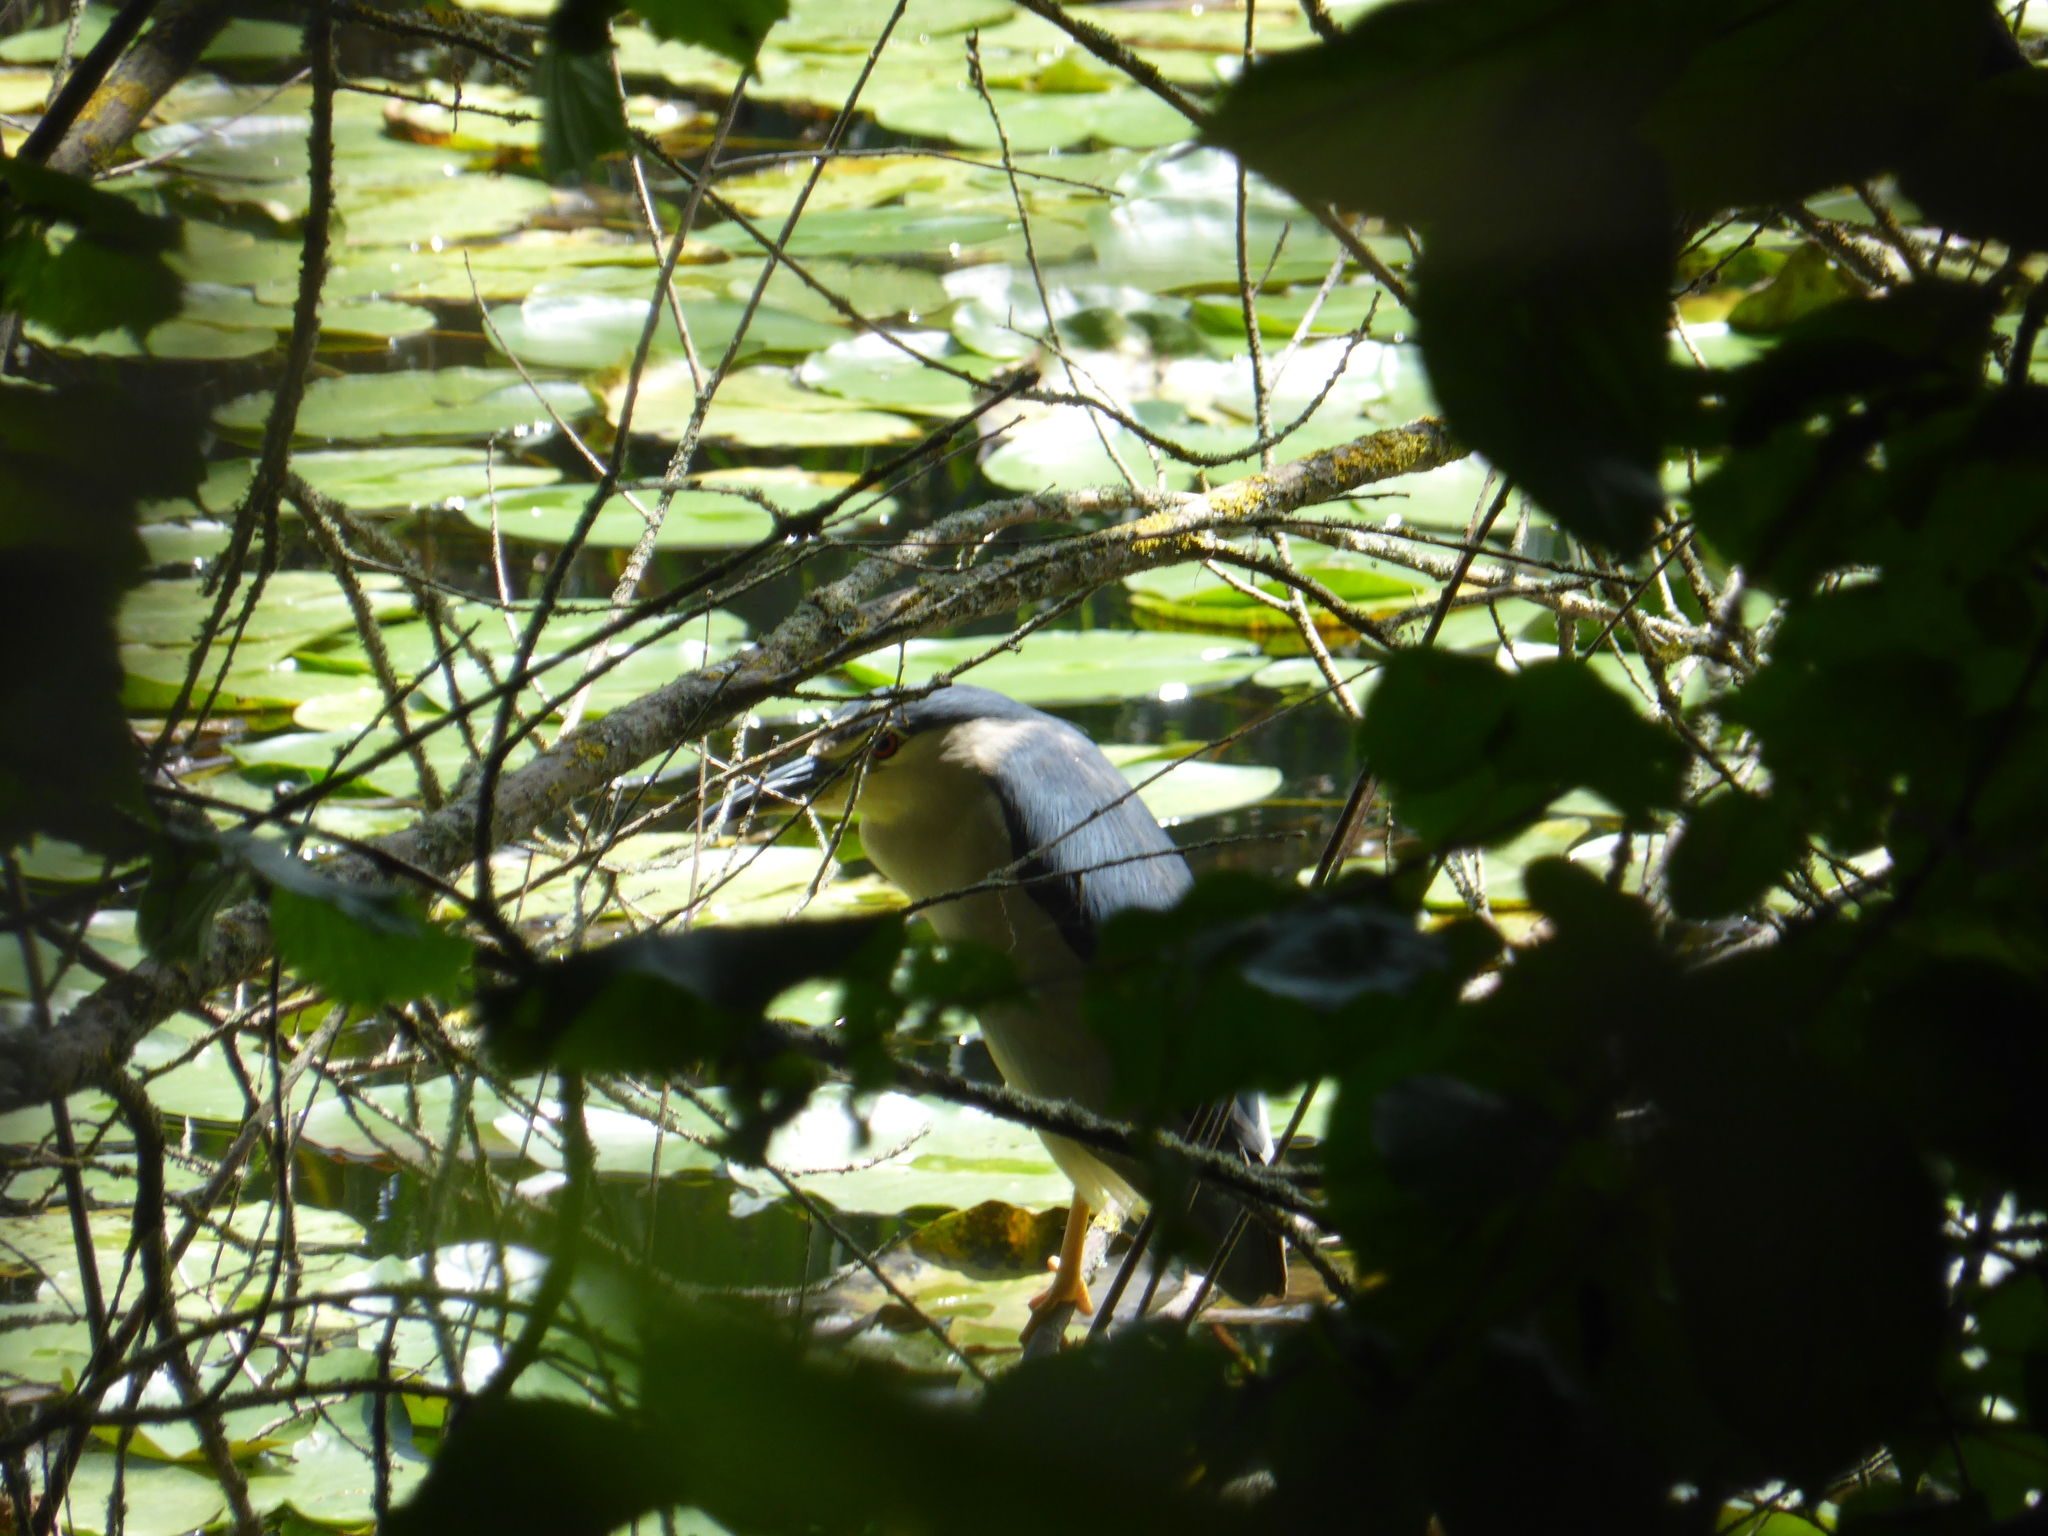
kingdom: Animalia
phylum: Chordata
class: Aves
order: Pelecaniformes
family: Ardeidae
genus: Nycticorax
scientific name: Nycticorax nycticorax
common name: Black-crowned night heron
